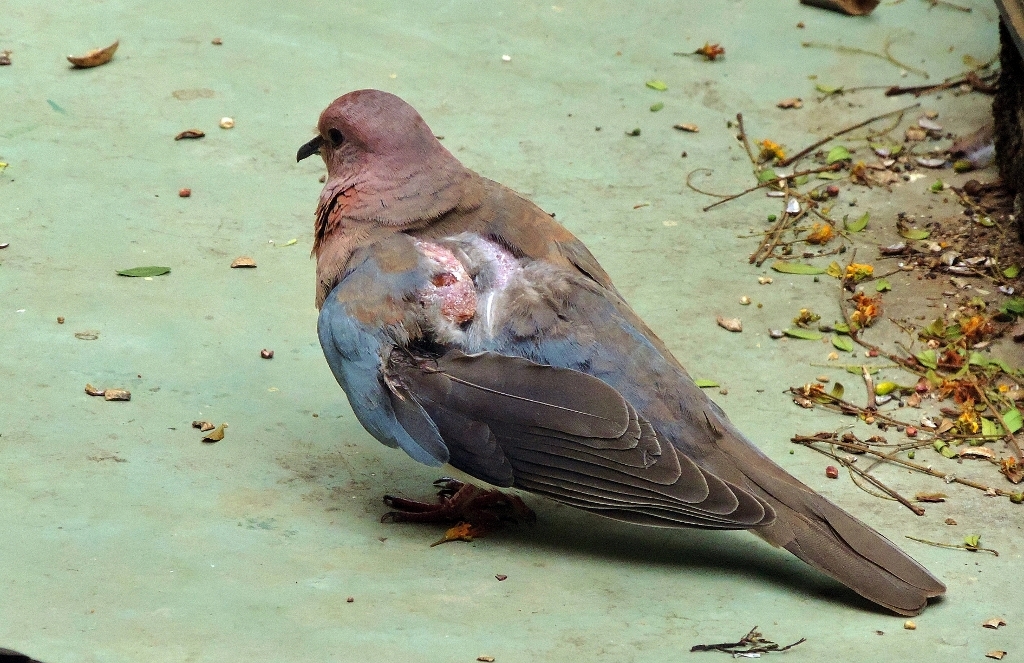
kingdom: Animalia
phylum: Chordata
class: Aves
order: Columbiformes
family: Columbidae
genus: Spilopelia
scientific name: Spilopelia senegalensis
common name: Laughing dove
